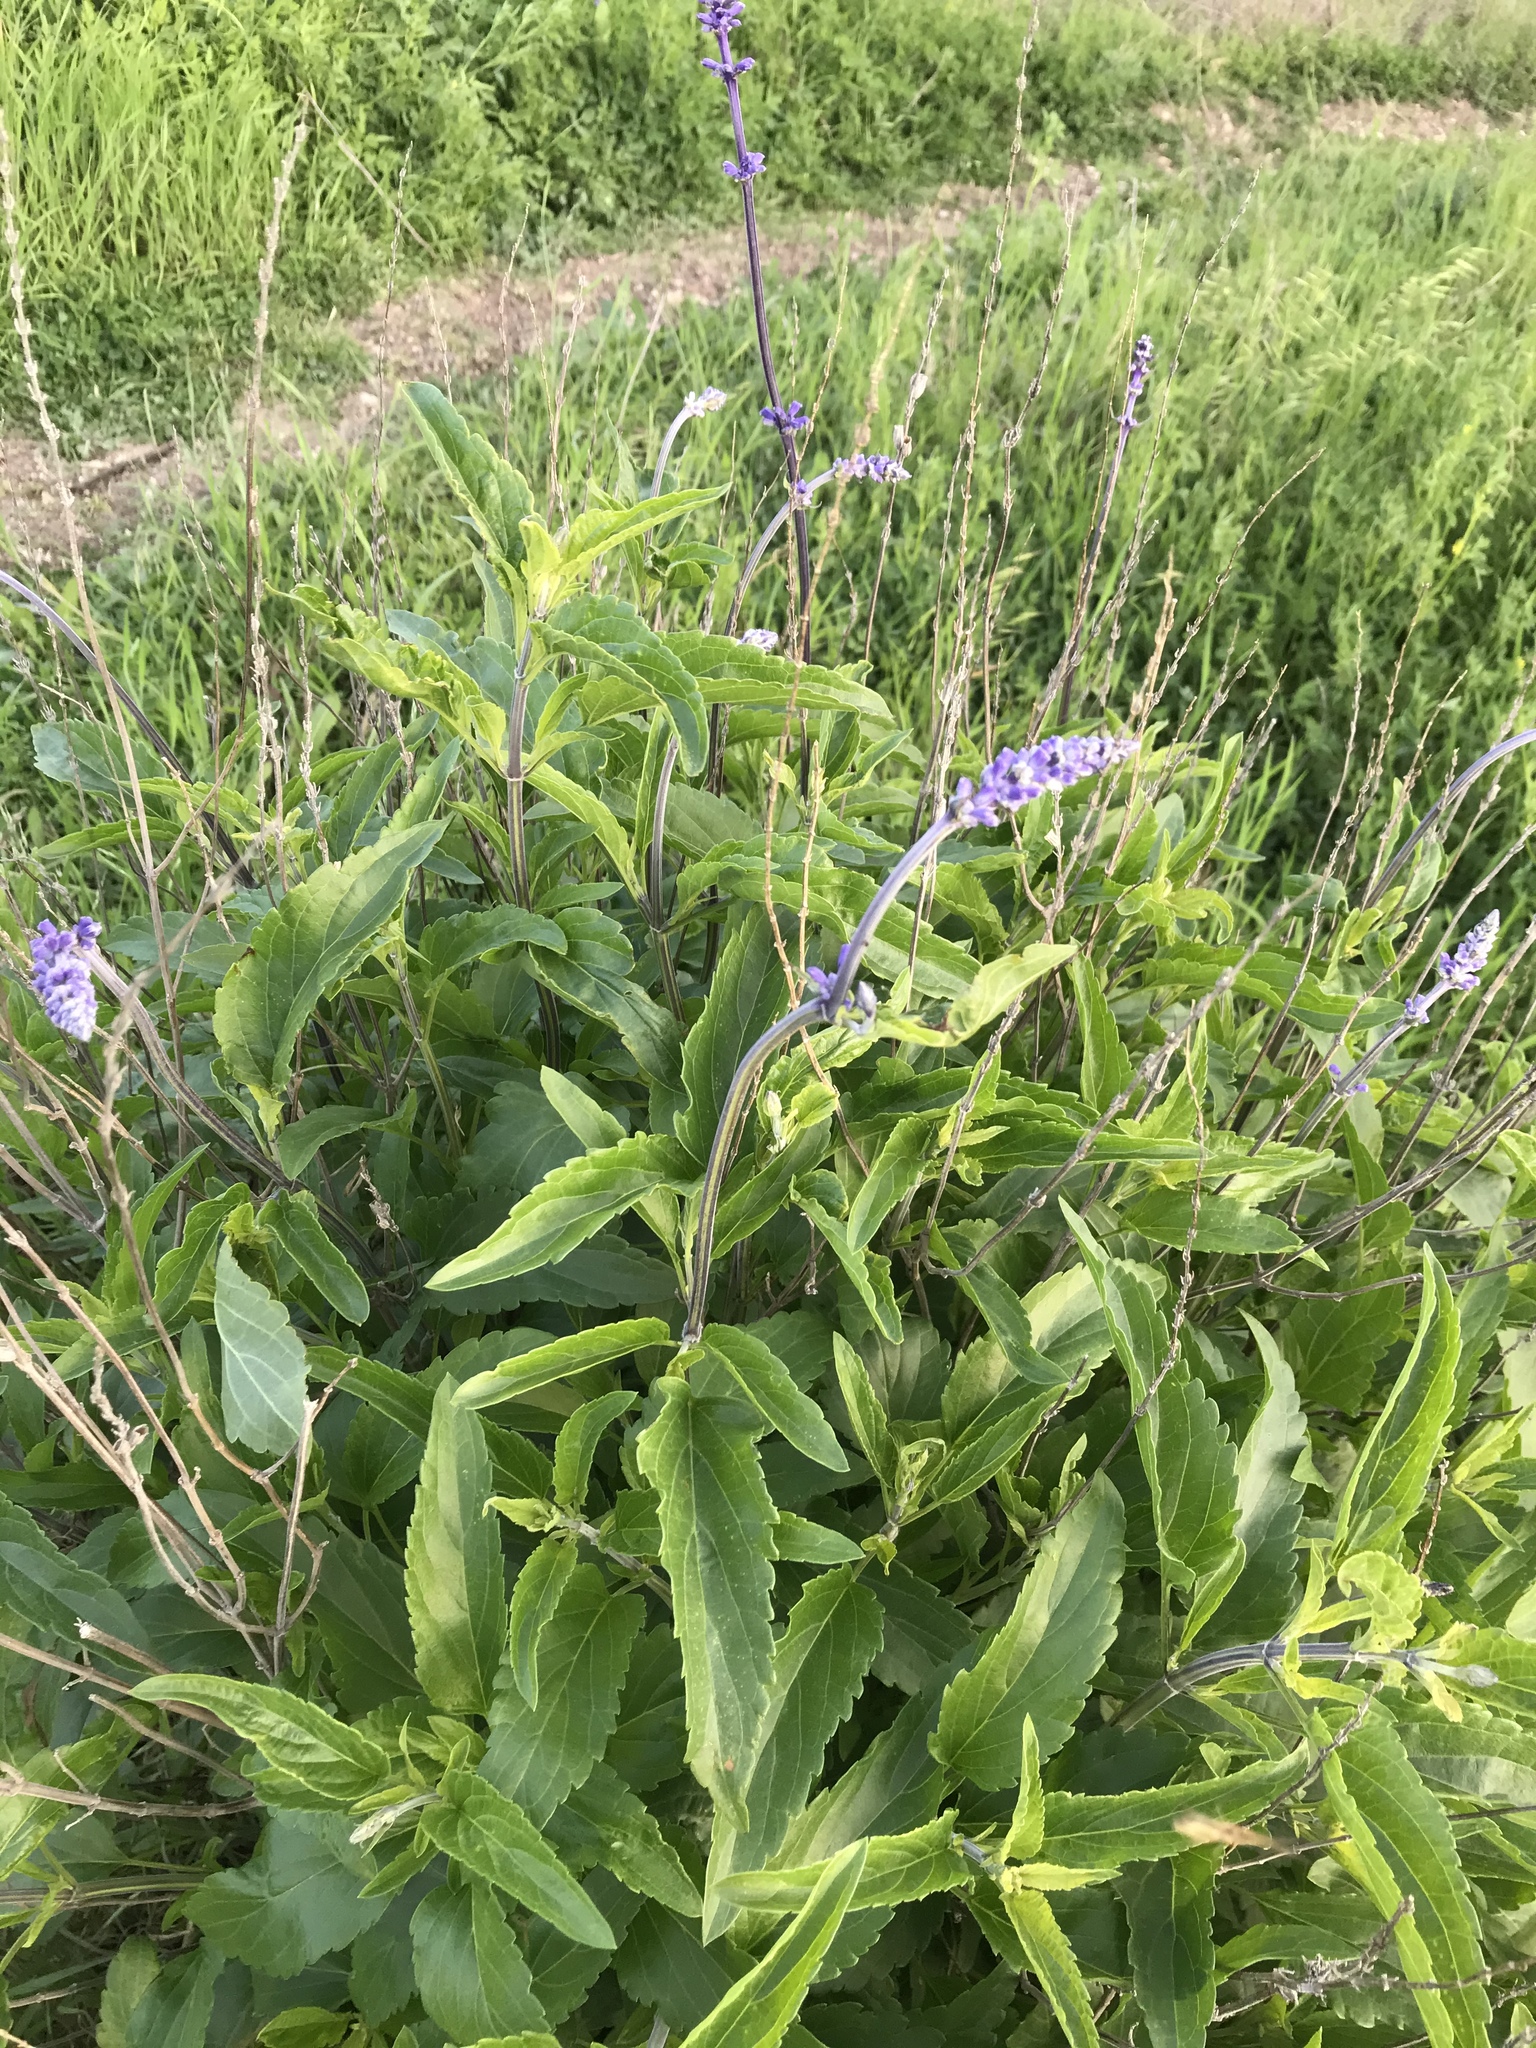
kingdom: Plantae
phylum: Tracheophyta
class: Magnoliopsida
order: Lamiales
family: Lamiaceae
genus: Salvia
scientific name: Salvia farinacea
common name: Mealy sage
